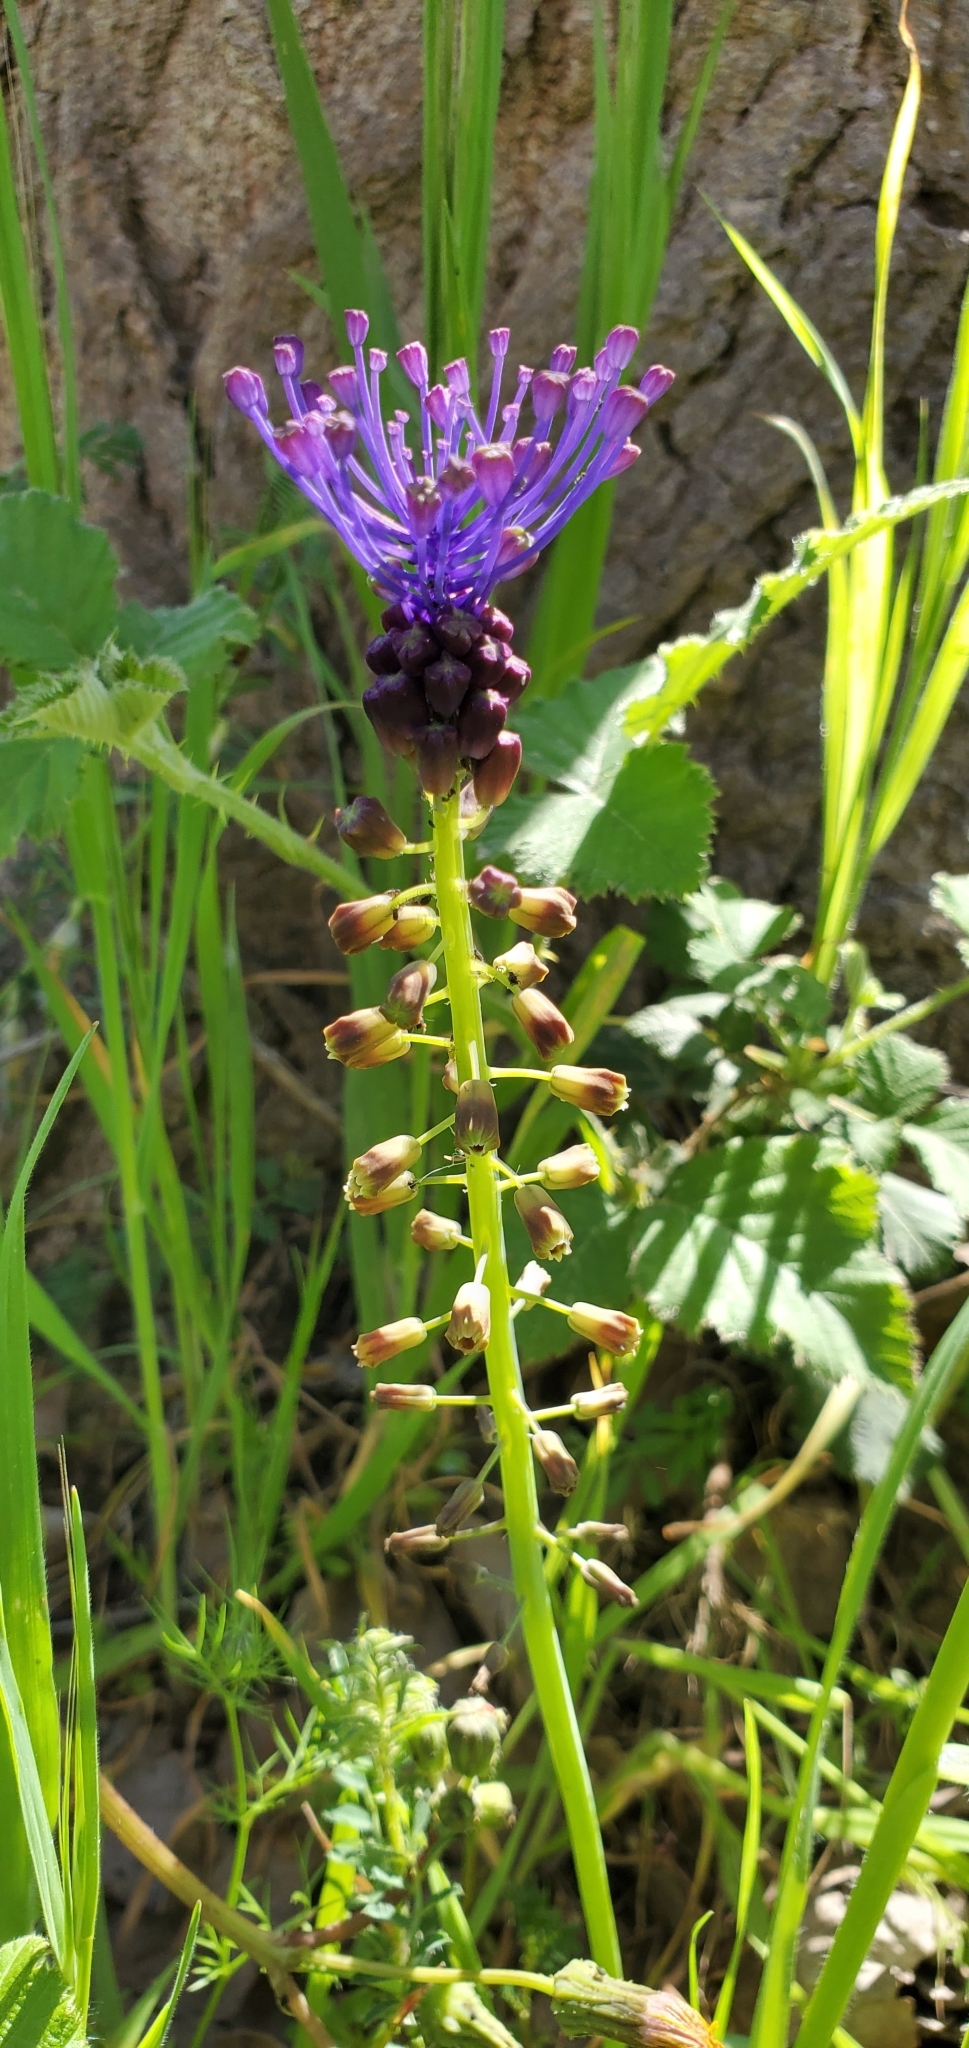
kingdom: Plantae
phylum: Tracheophyta
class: Liliopsida
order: Asparagales
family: Asparagaceae
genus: Muscari
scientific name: Muscari comosum
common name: Tassel hyacinth
